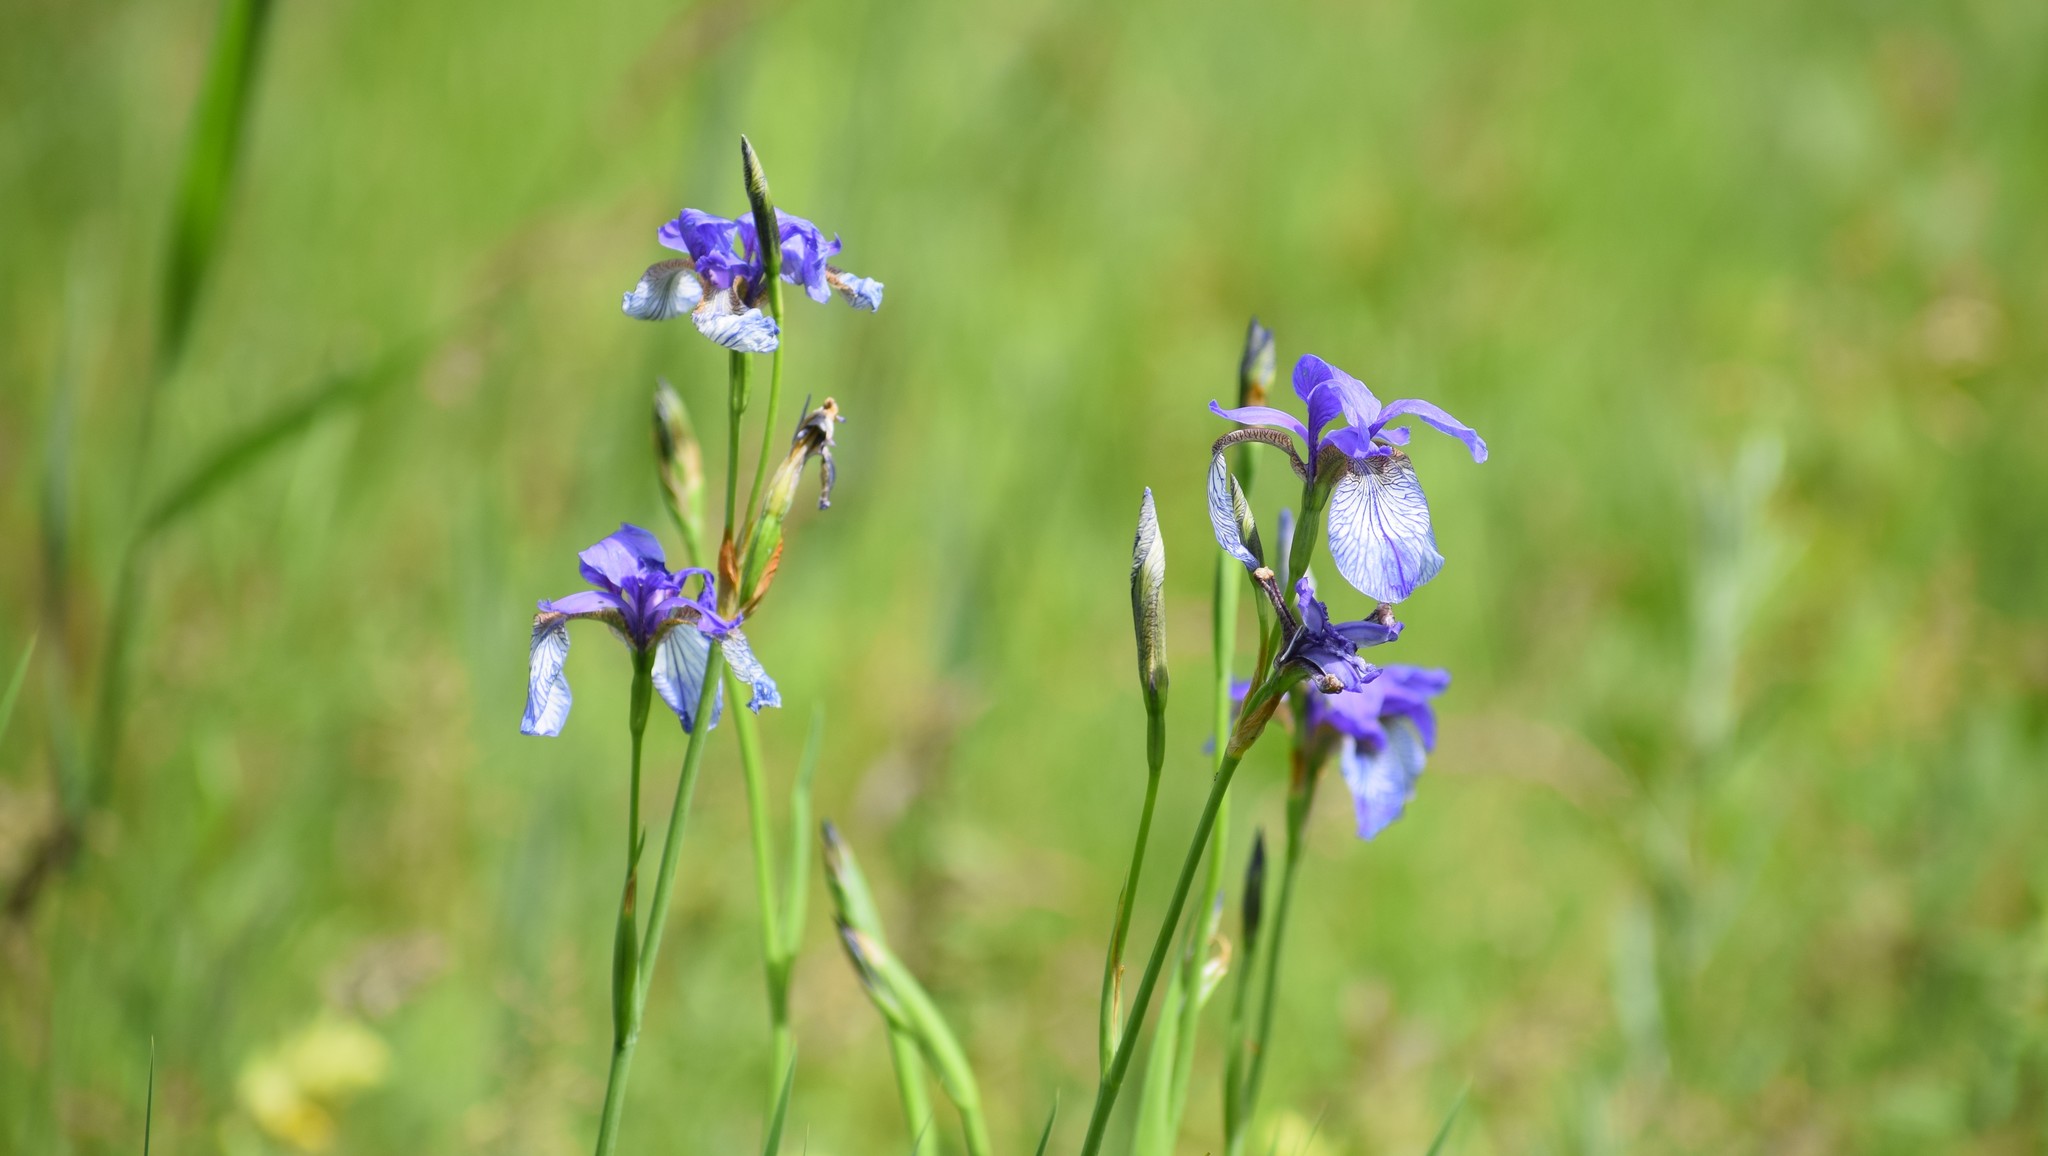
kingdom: Plantae
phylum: Tracheophyta
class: Liliopsida
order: Asparagales
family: Iridaceae
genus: Iris
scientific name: Iris sibirica
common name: Siberian iris
